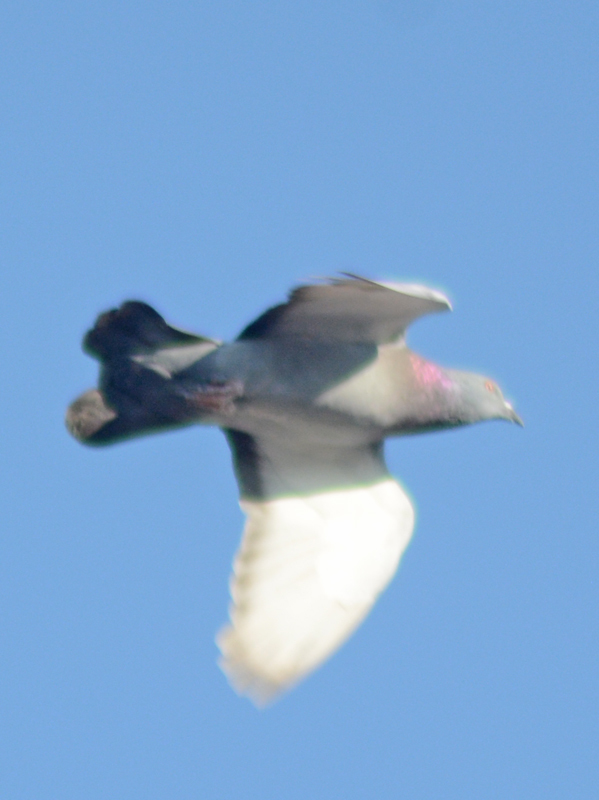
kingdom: Animalia
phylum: Chordata
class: Aves
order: Columbiformes
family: Columbidae
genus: Columba
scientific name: Columba livia
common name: Rock pigeon
